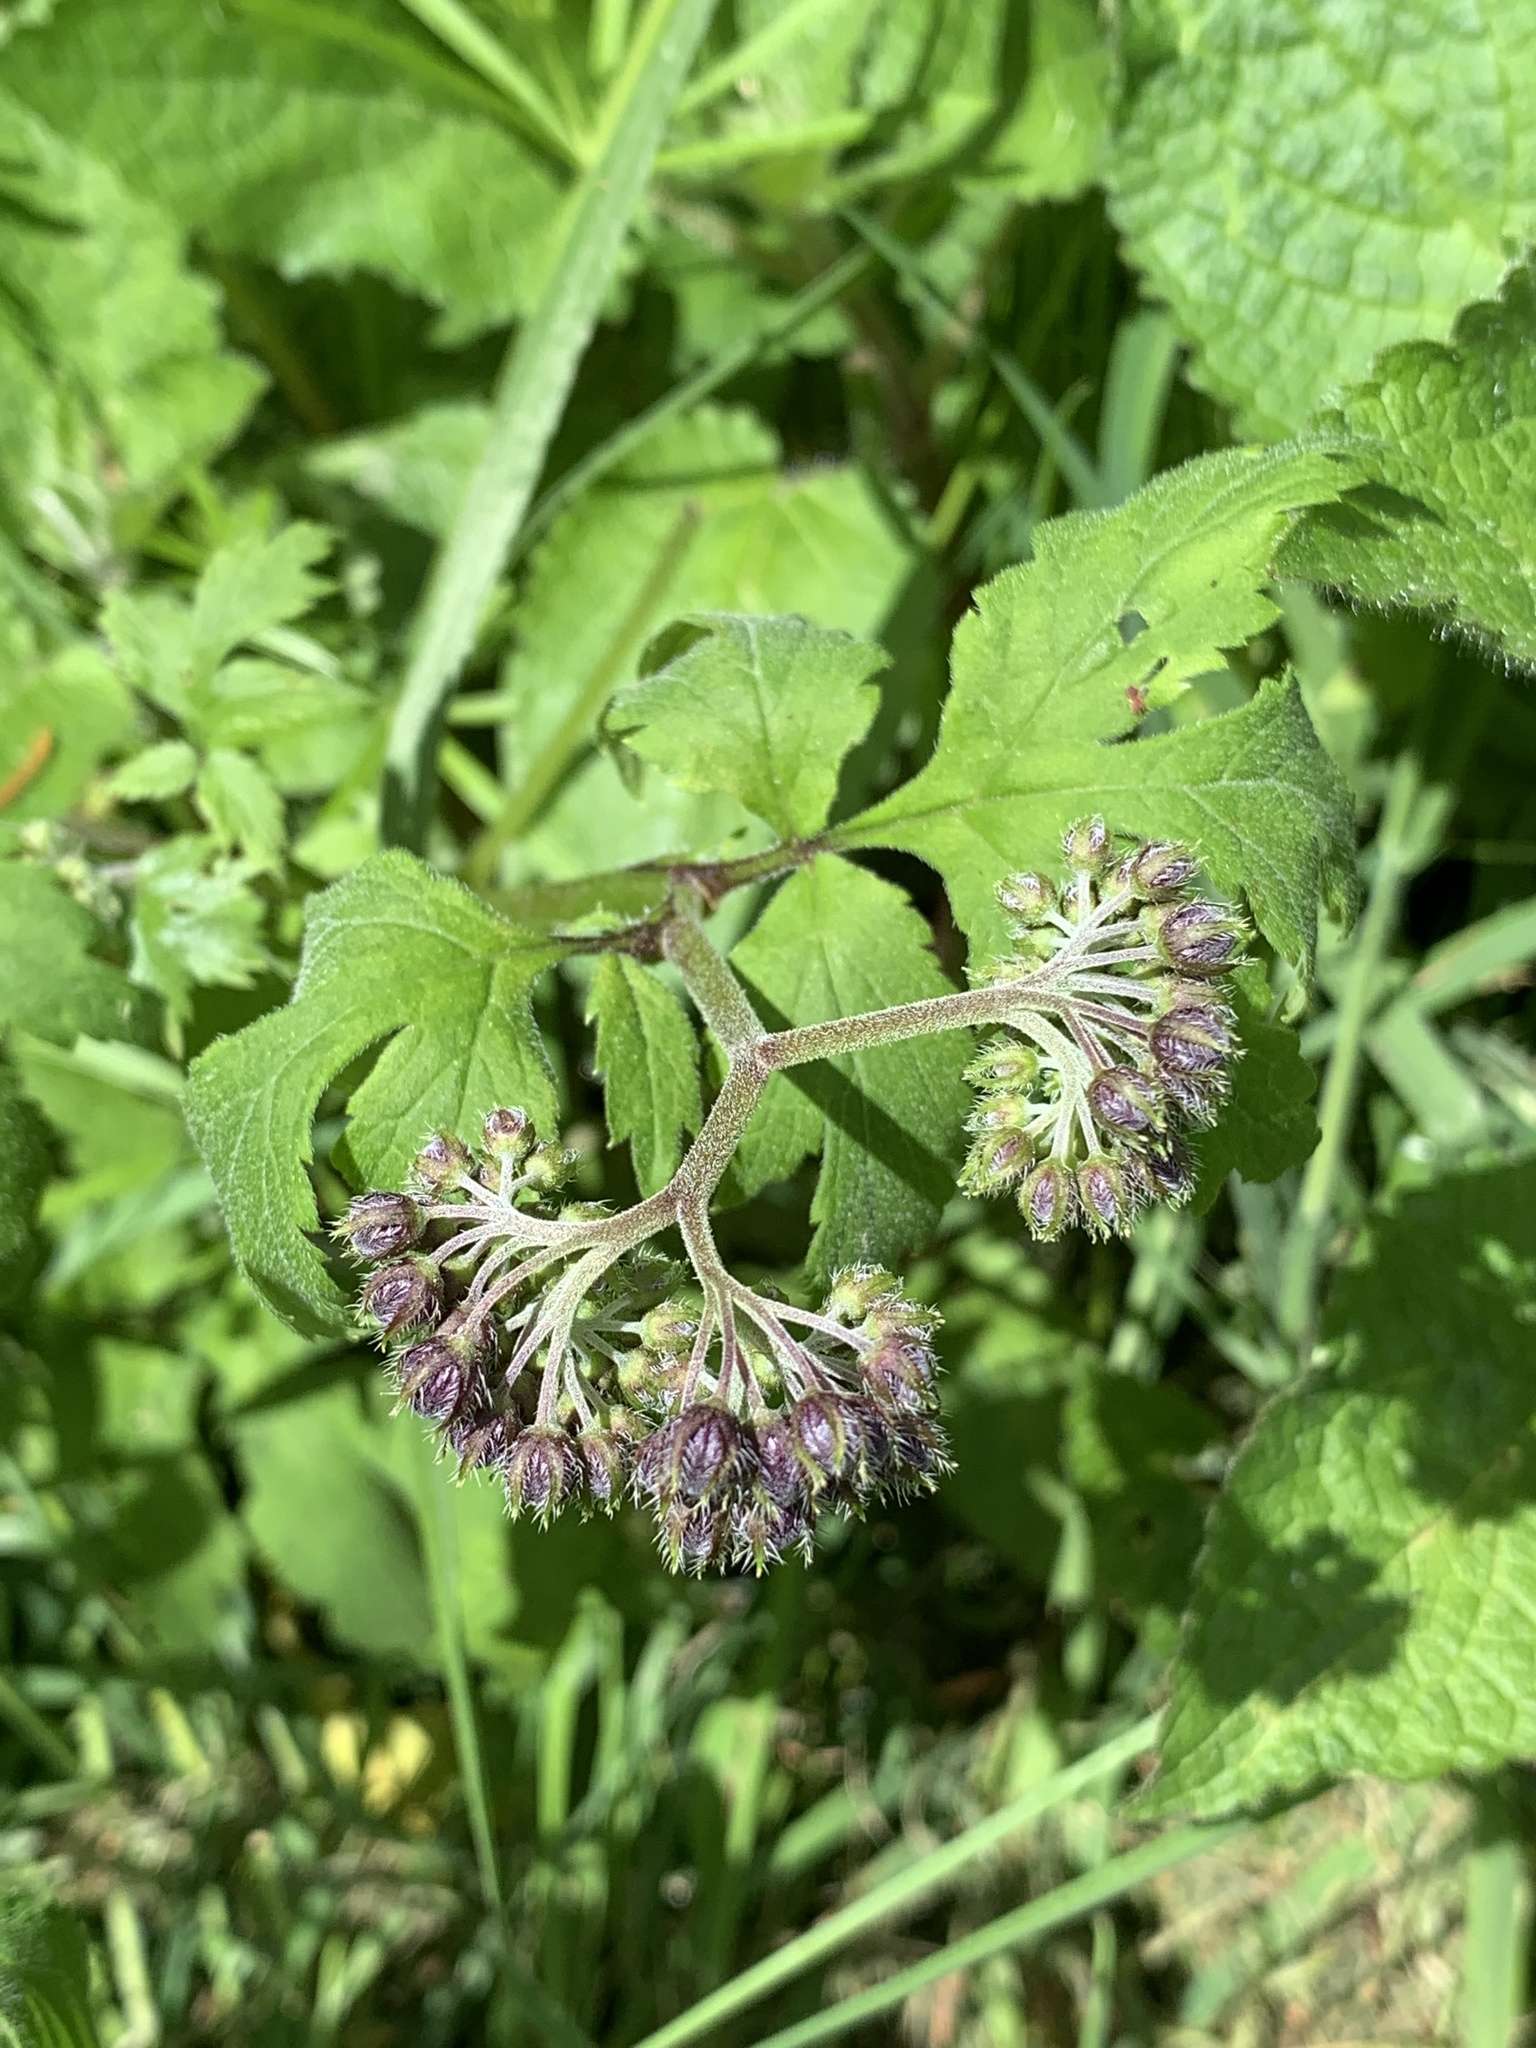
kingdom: Plantae
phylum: Tracheophyta
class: Magnoliopsida
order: Boraginales
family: Hydrophyllaceae
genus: Hydrophyllum
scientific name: Hydrophyllum tenuipes
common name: Pacific waterleaf
